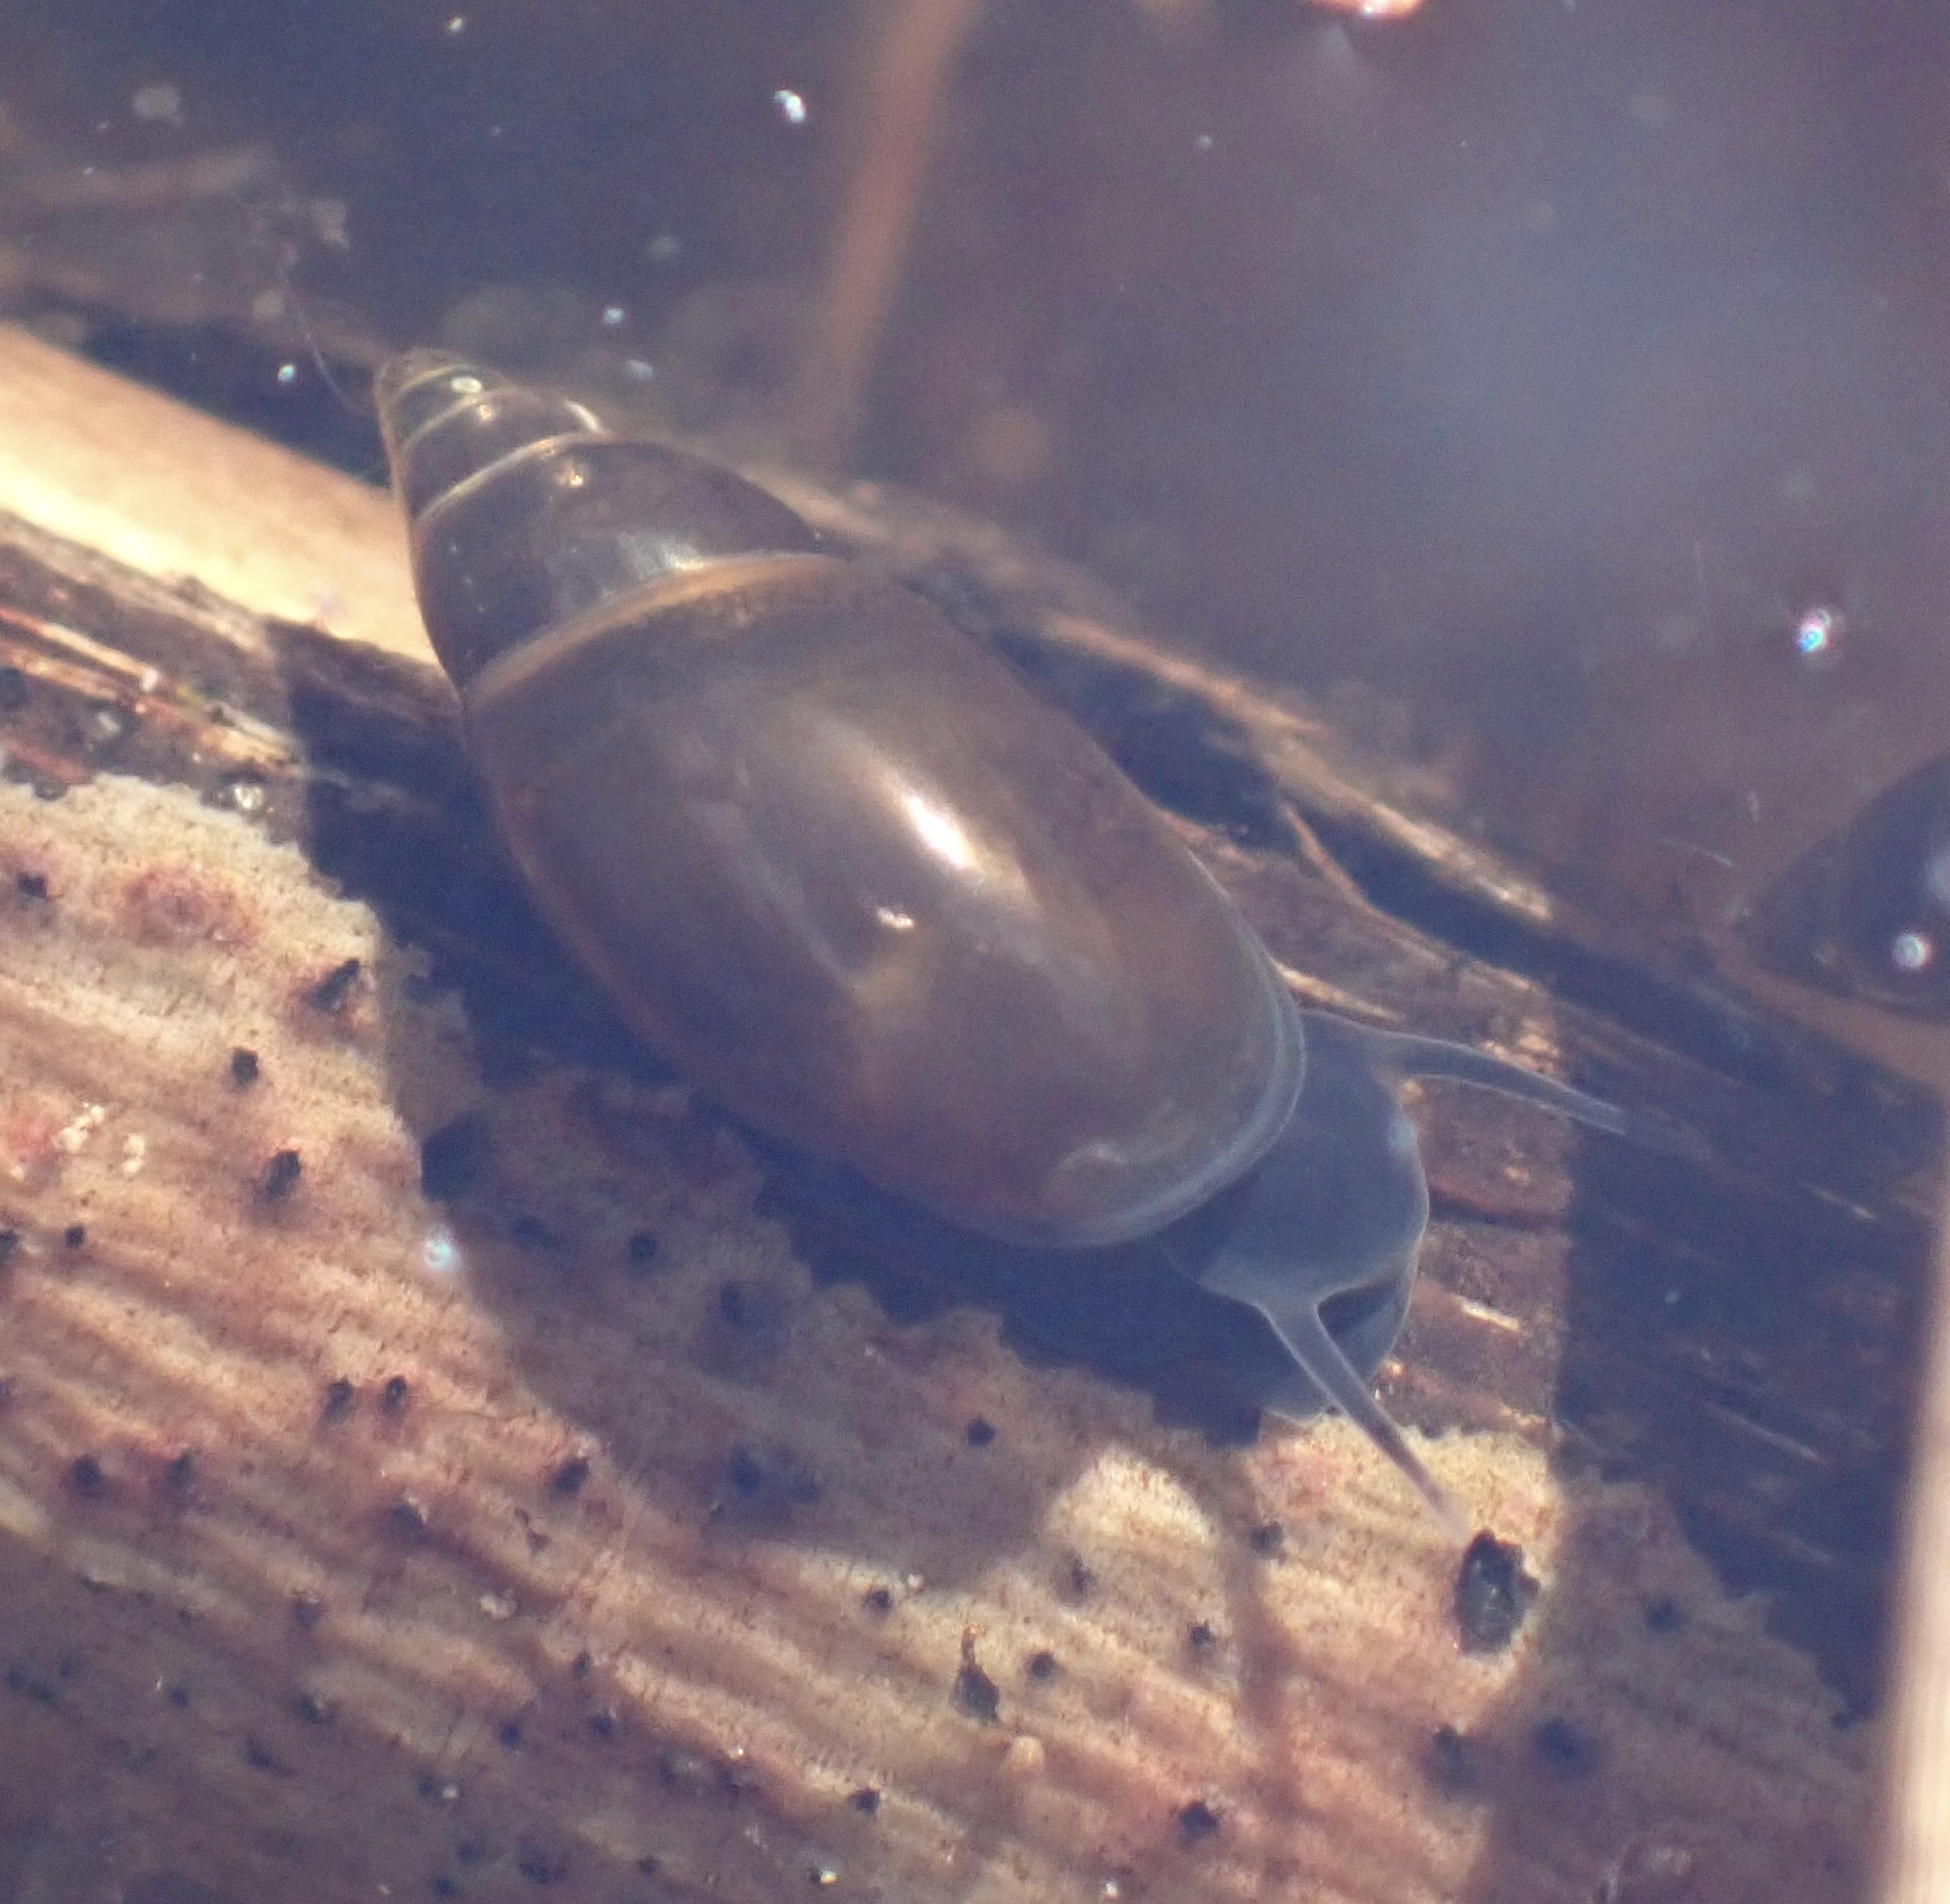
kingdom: Animalia
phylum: Mollusca
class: Gastropoda
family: Physidae
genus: Aplexa
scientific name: Aplexa hypnorum
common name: Moss bladder snail
